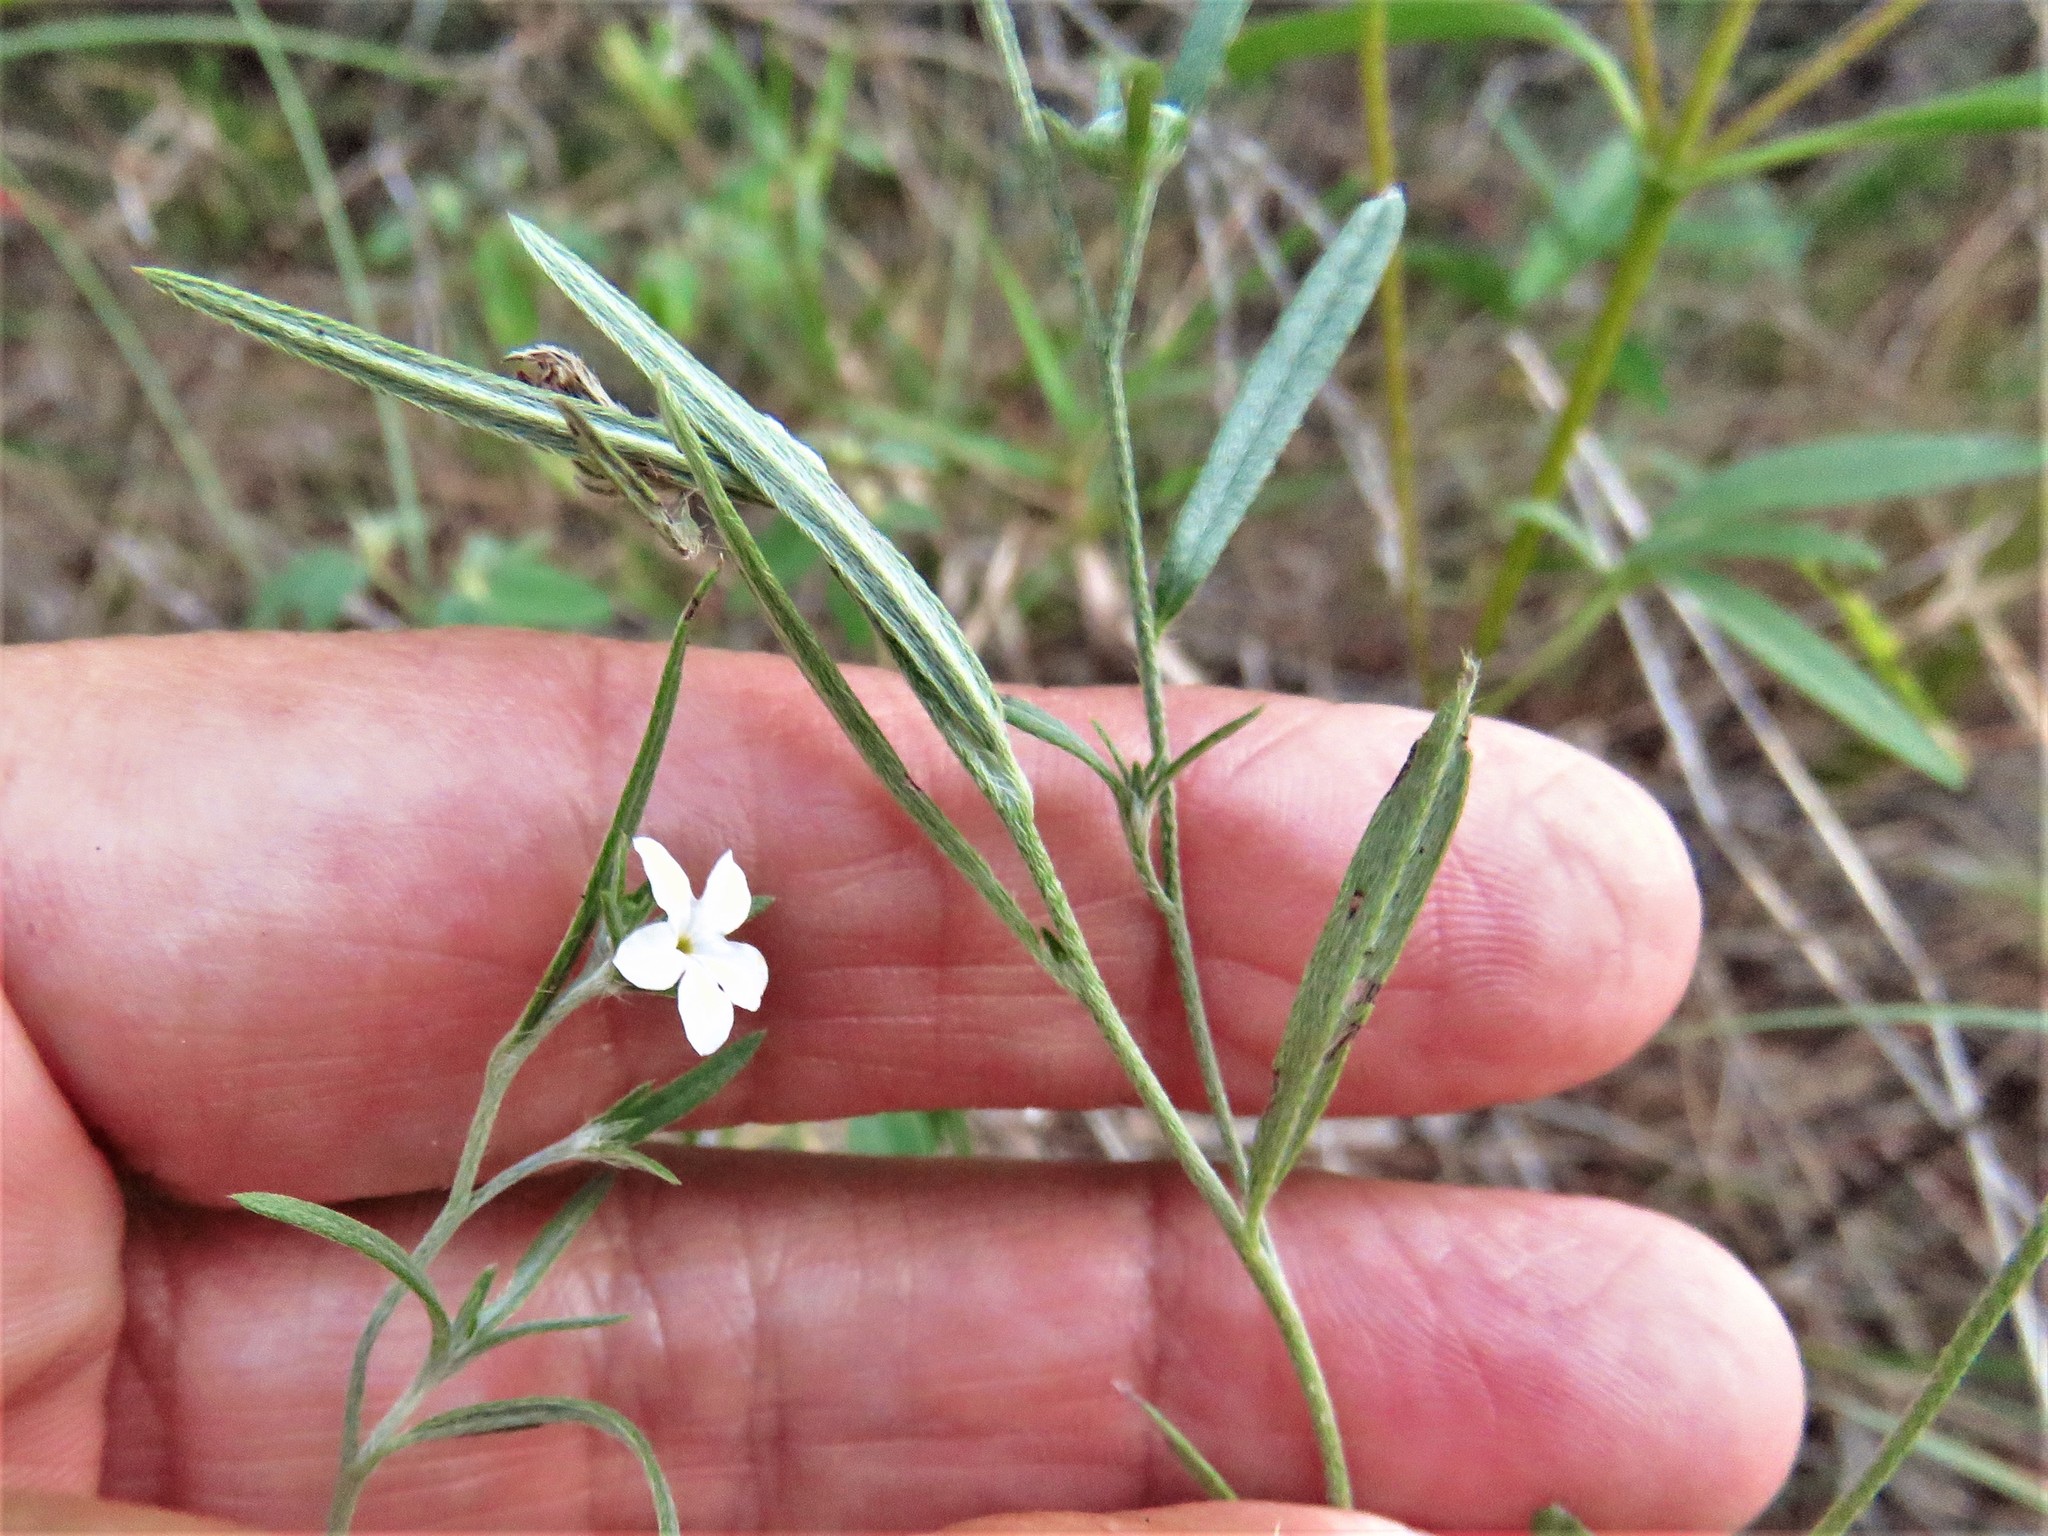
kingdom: Plantae
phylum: Tracheophyta
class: Magnoliopsida
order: Boraginales
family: Heliotropiaceae
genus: Euploca
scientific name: Euploca tenella
